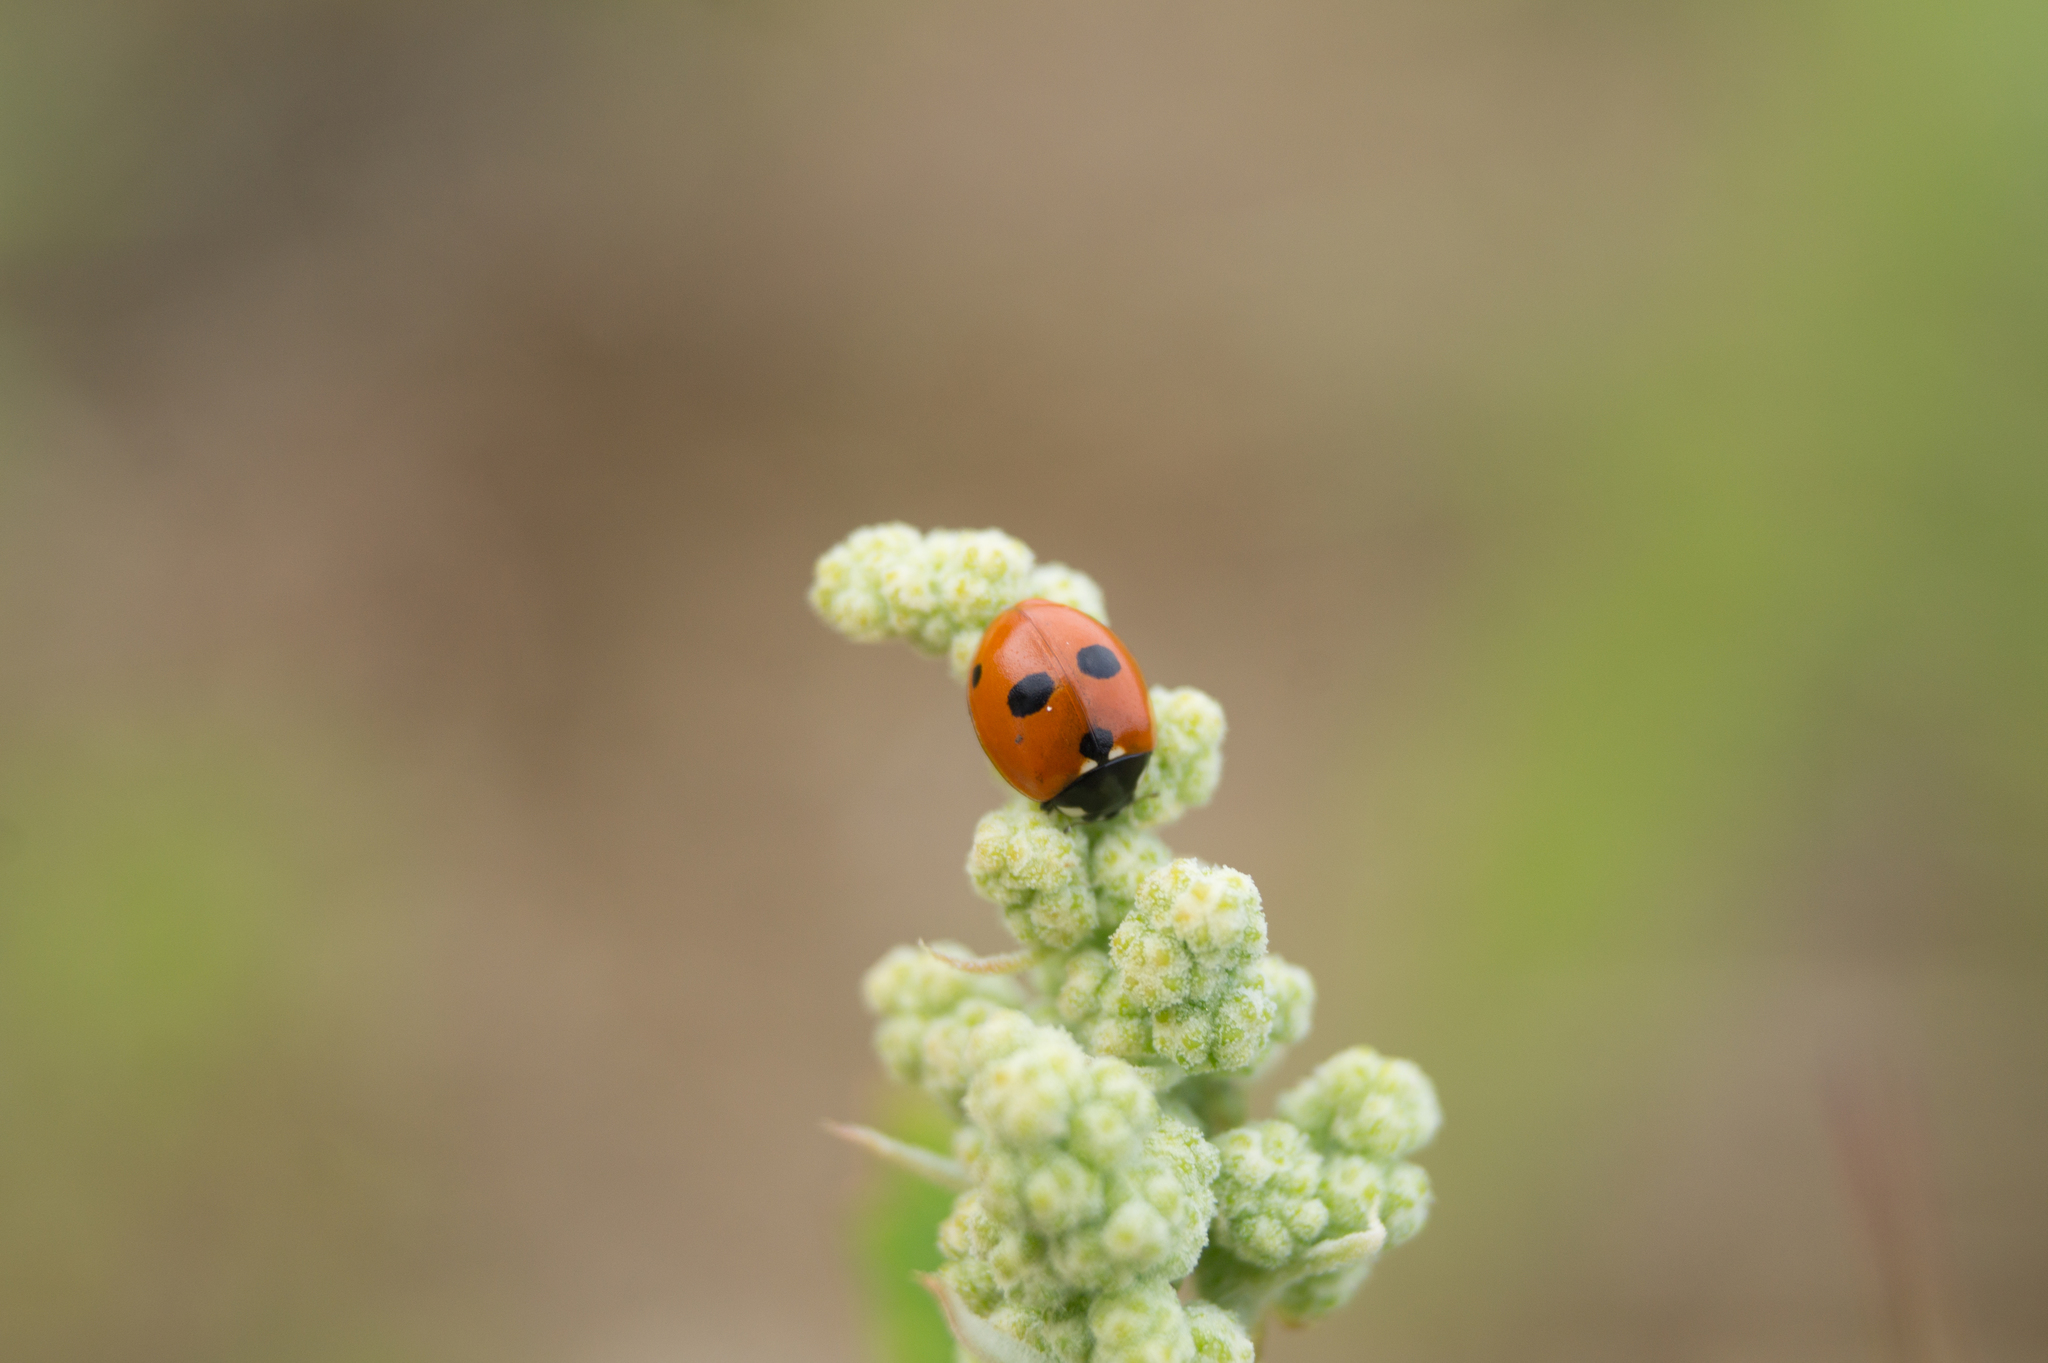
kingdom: Animalia
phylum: Arthropoda
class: Insecta
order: Coleoptera
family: Coccinellidae
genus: Coccinella
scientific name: Coccinella quinquepunctata
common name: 5-spot ladybird
